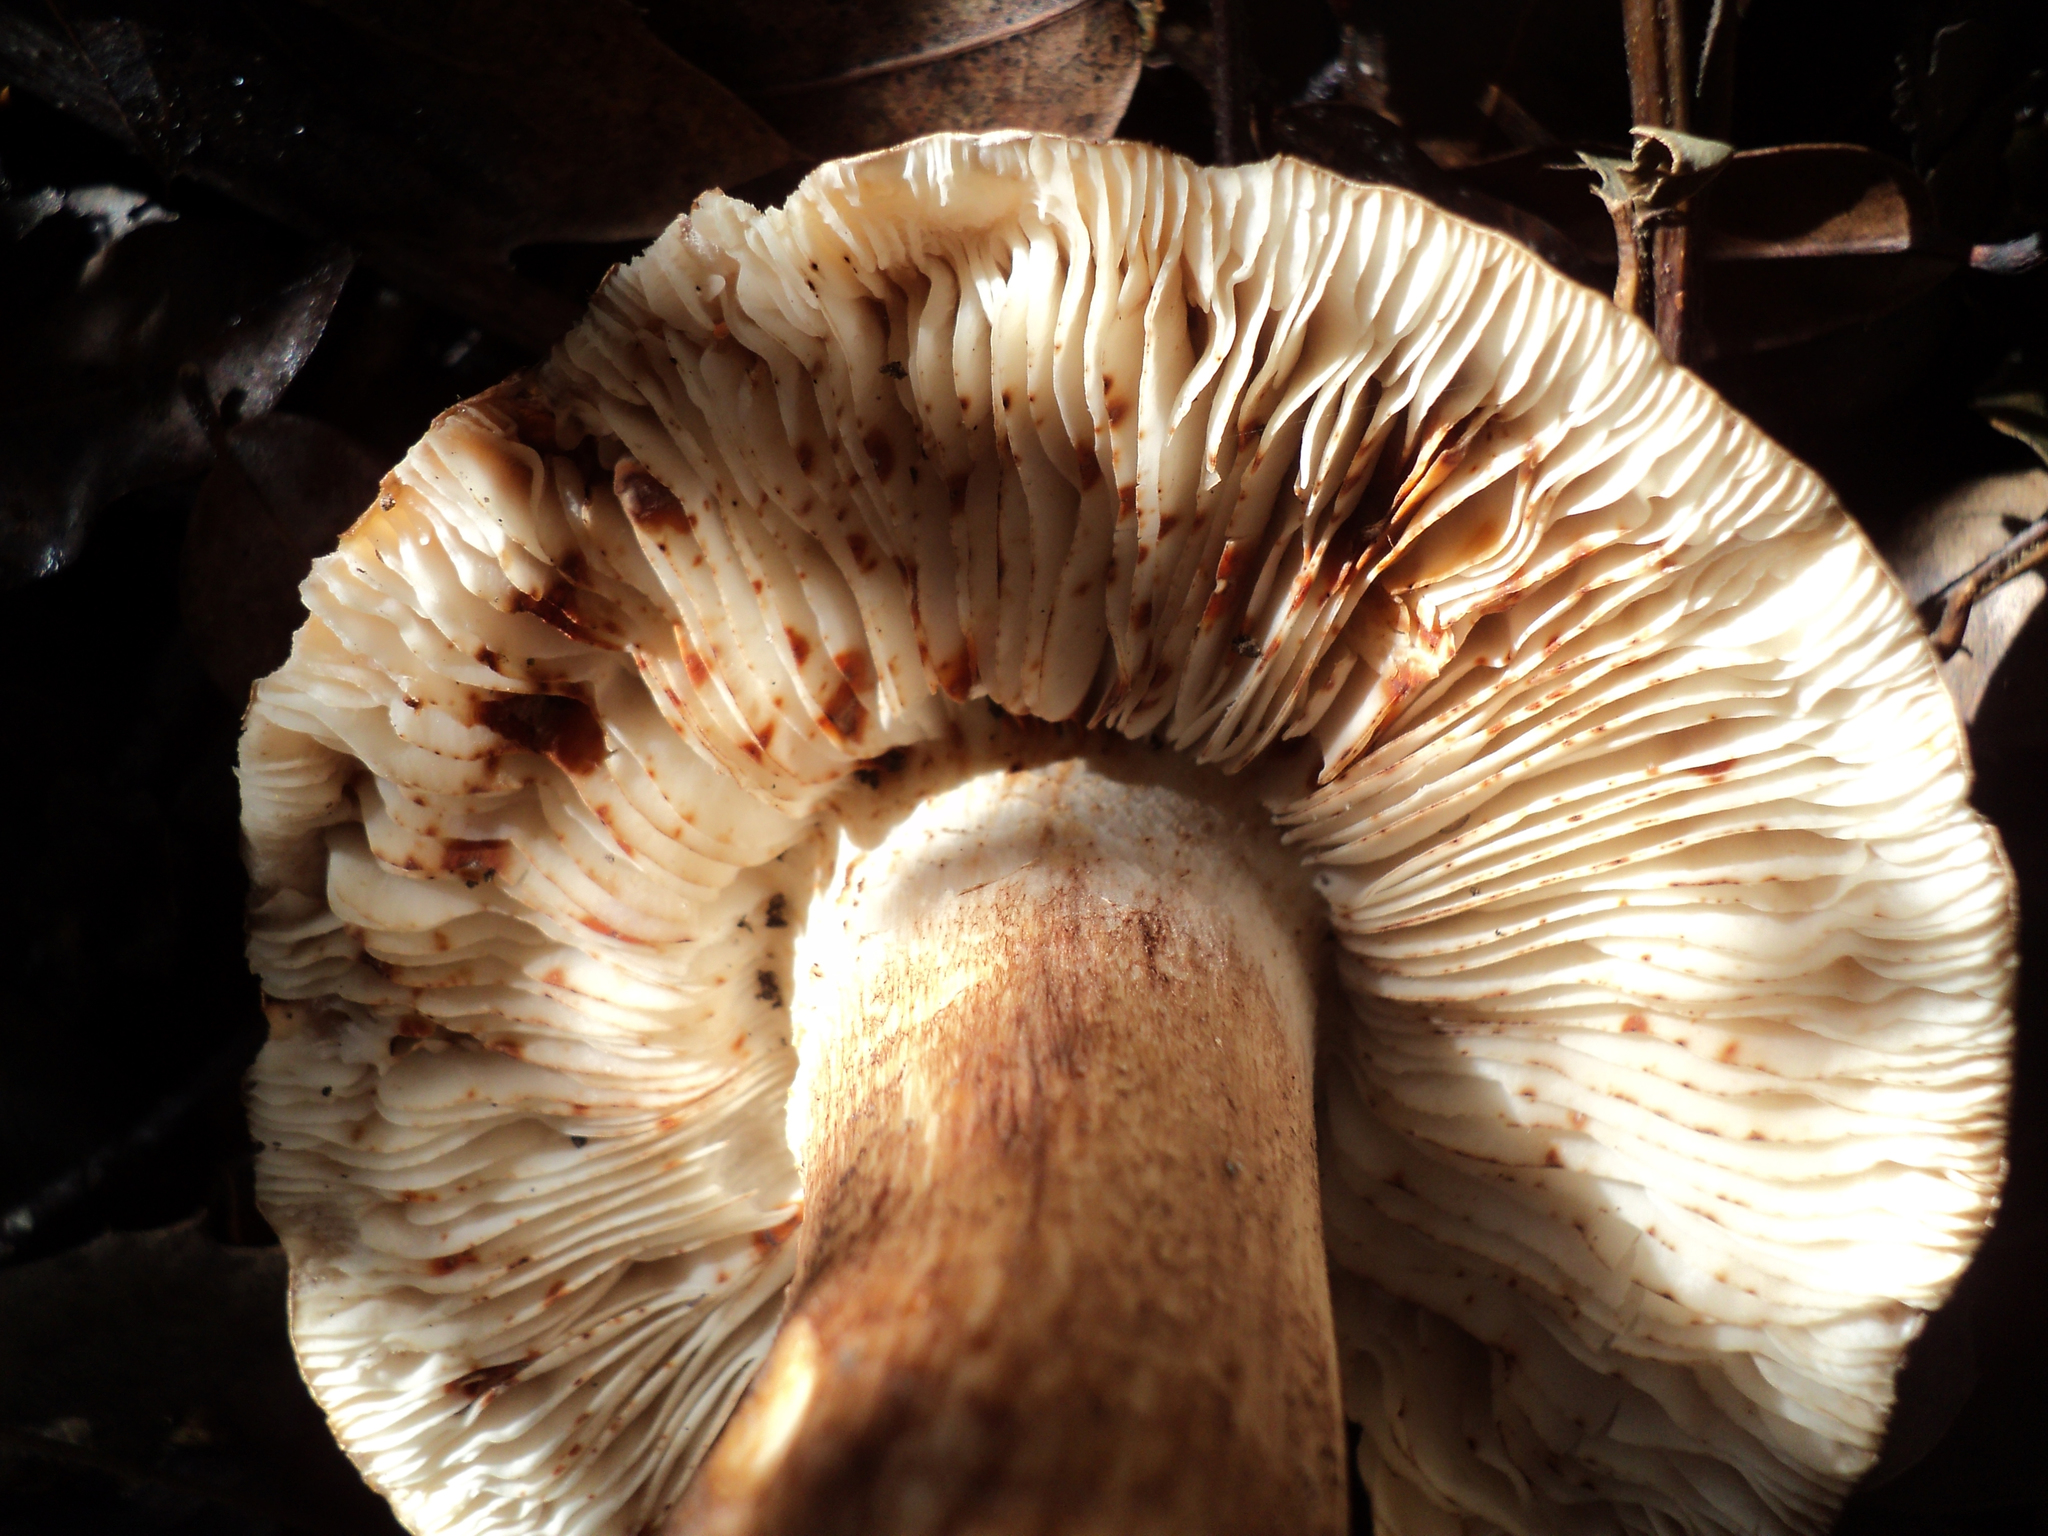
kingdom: Fungi
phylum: Basidiomycota
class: Agaricomycetes
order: Agaricales
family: Tricholomataceae
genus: Melanoleuca
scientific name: Melanoleuca dryophila
